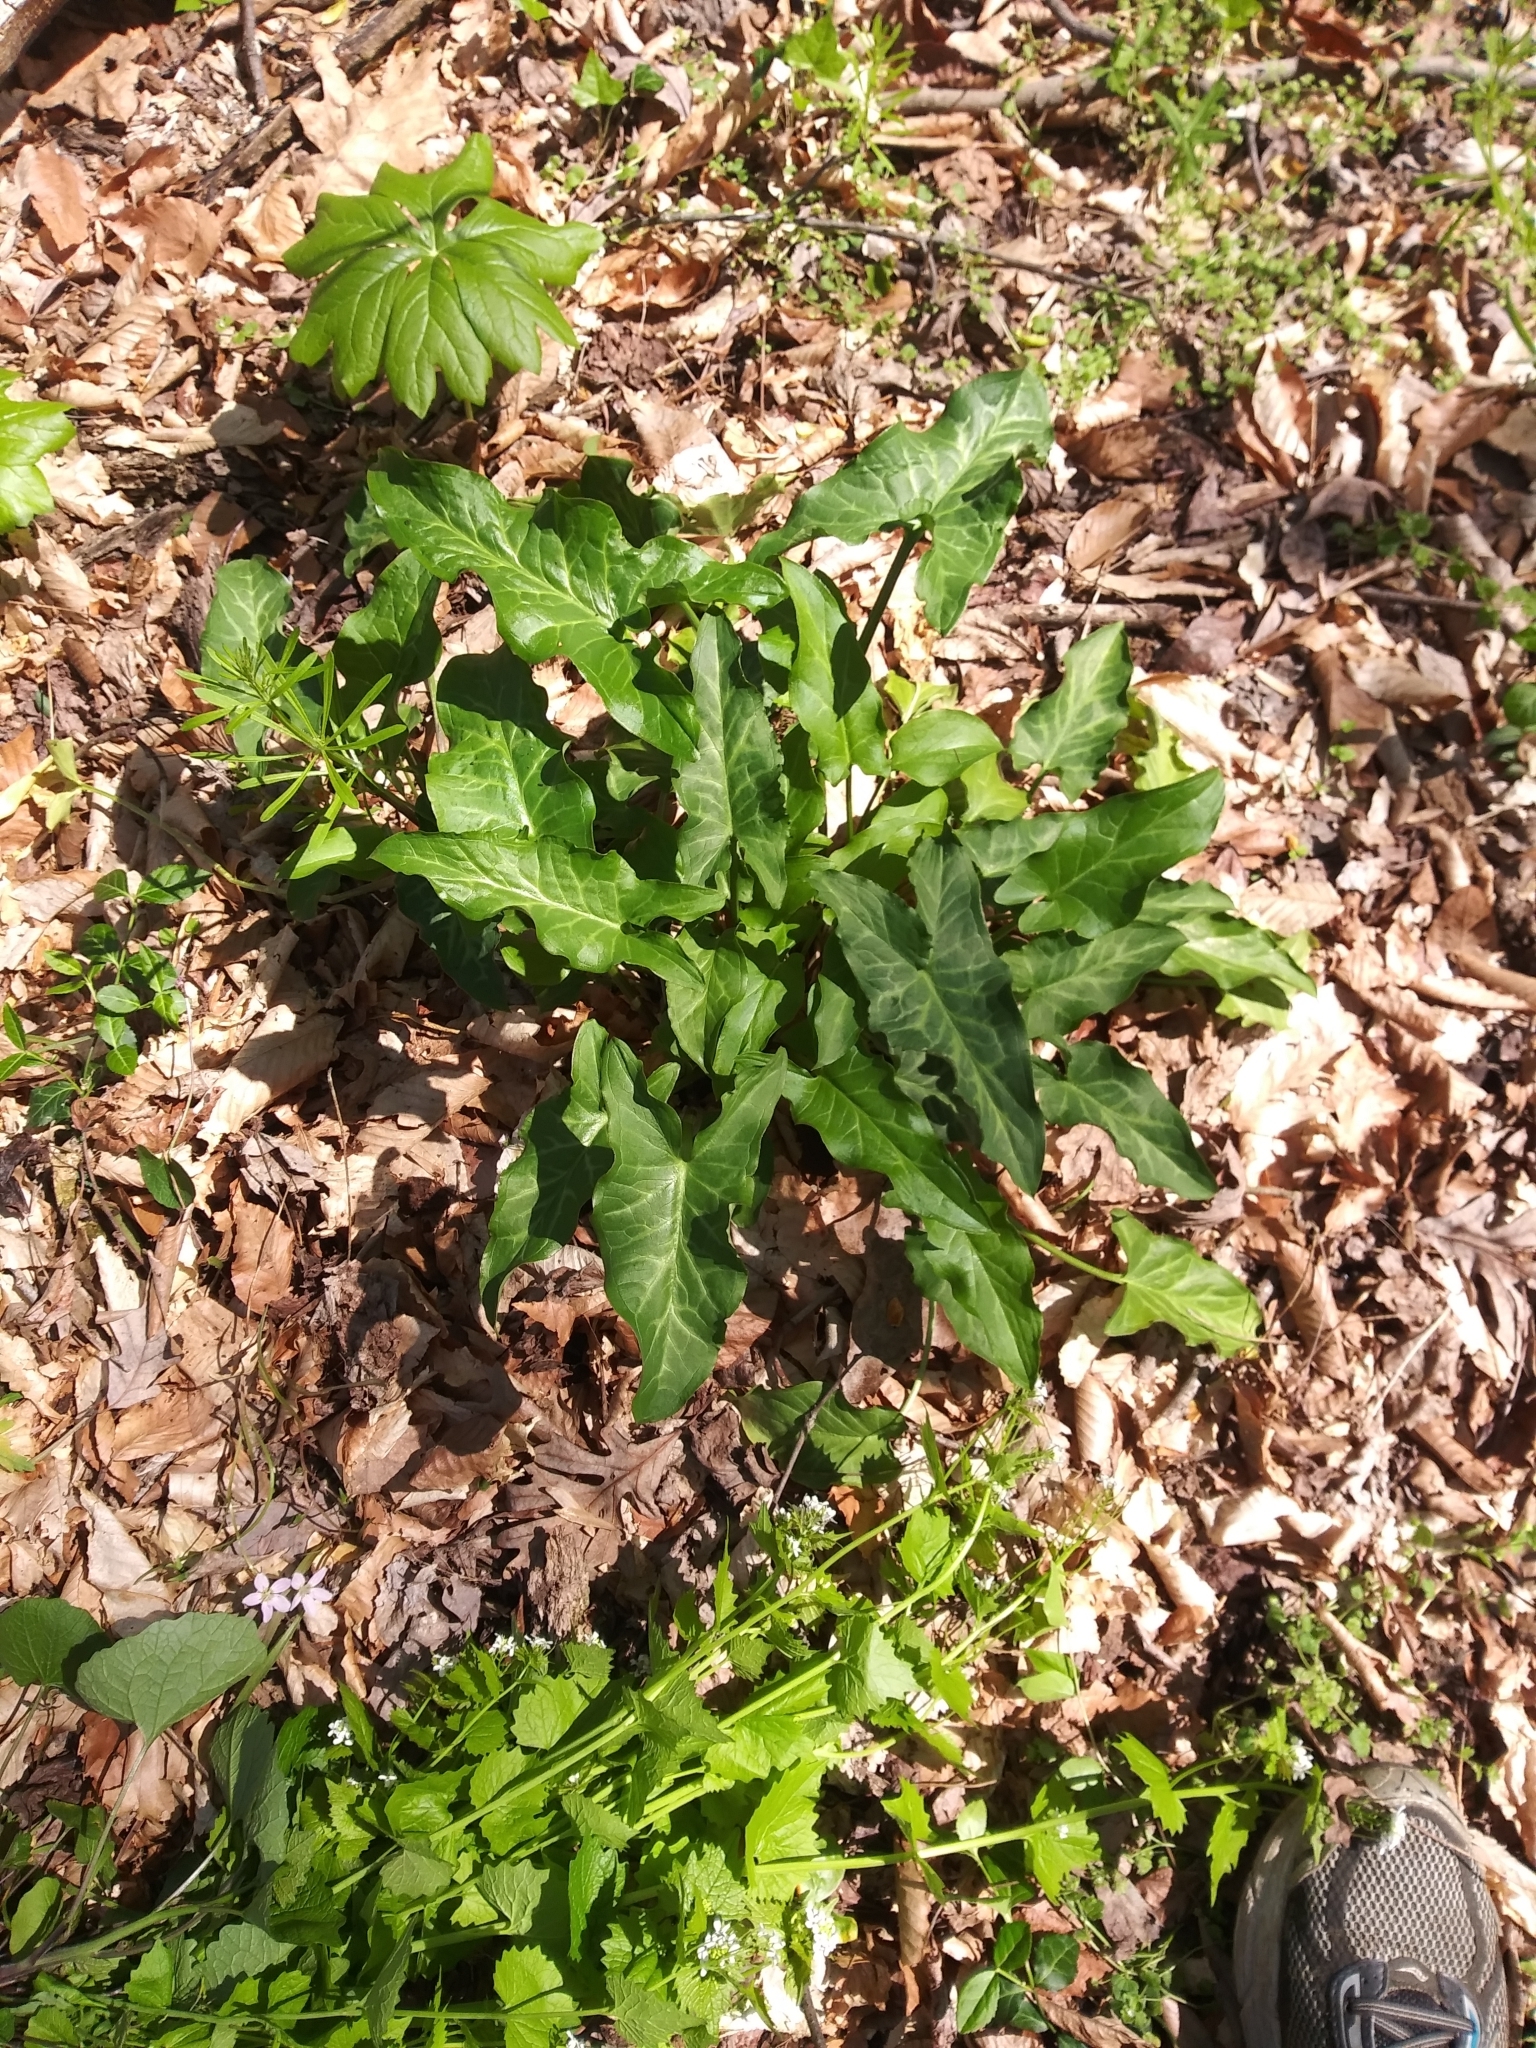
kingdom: Plantae
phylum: Tracheophyta
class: Liliopsida
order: Alismatales
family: Araceae
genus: Arum
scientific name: Arum italicum
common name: Italian lords-and-ladies
